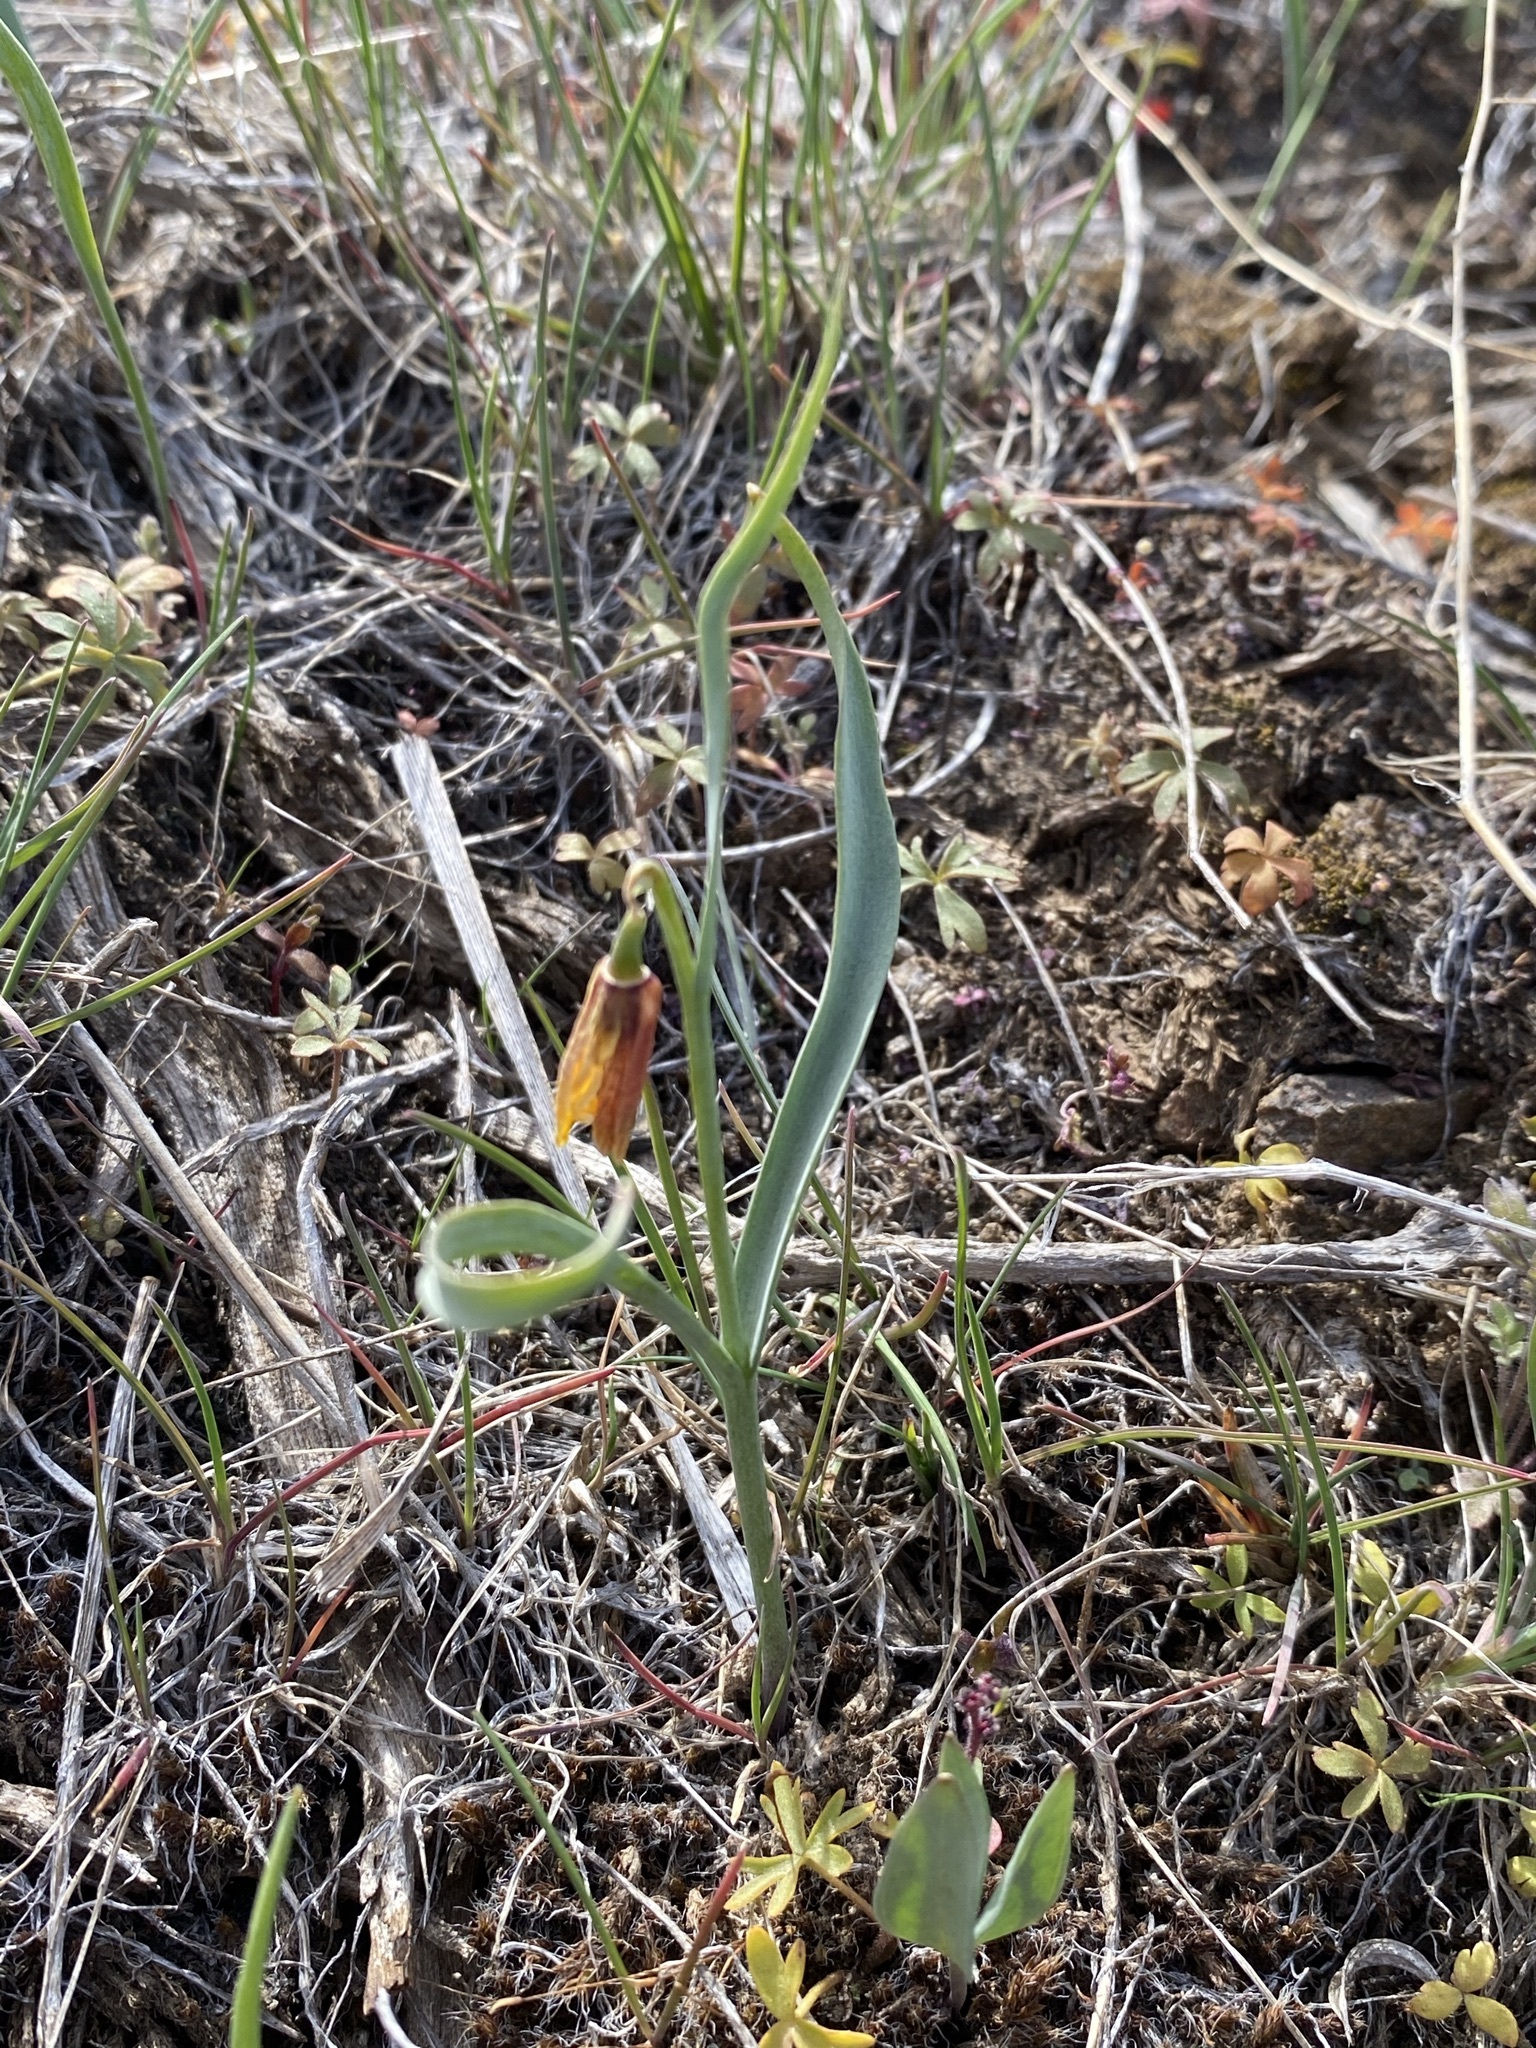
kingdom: Plantae
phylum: Tracheophyta
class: Liliopsida
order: Liliales
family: Liliaceae
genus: Fritillaria
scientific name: Fritillaria pudica
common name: Yellow fritillary
